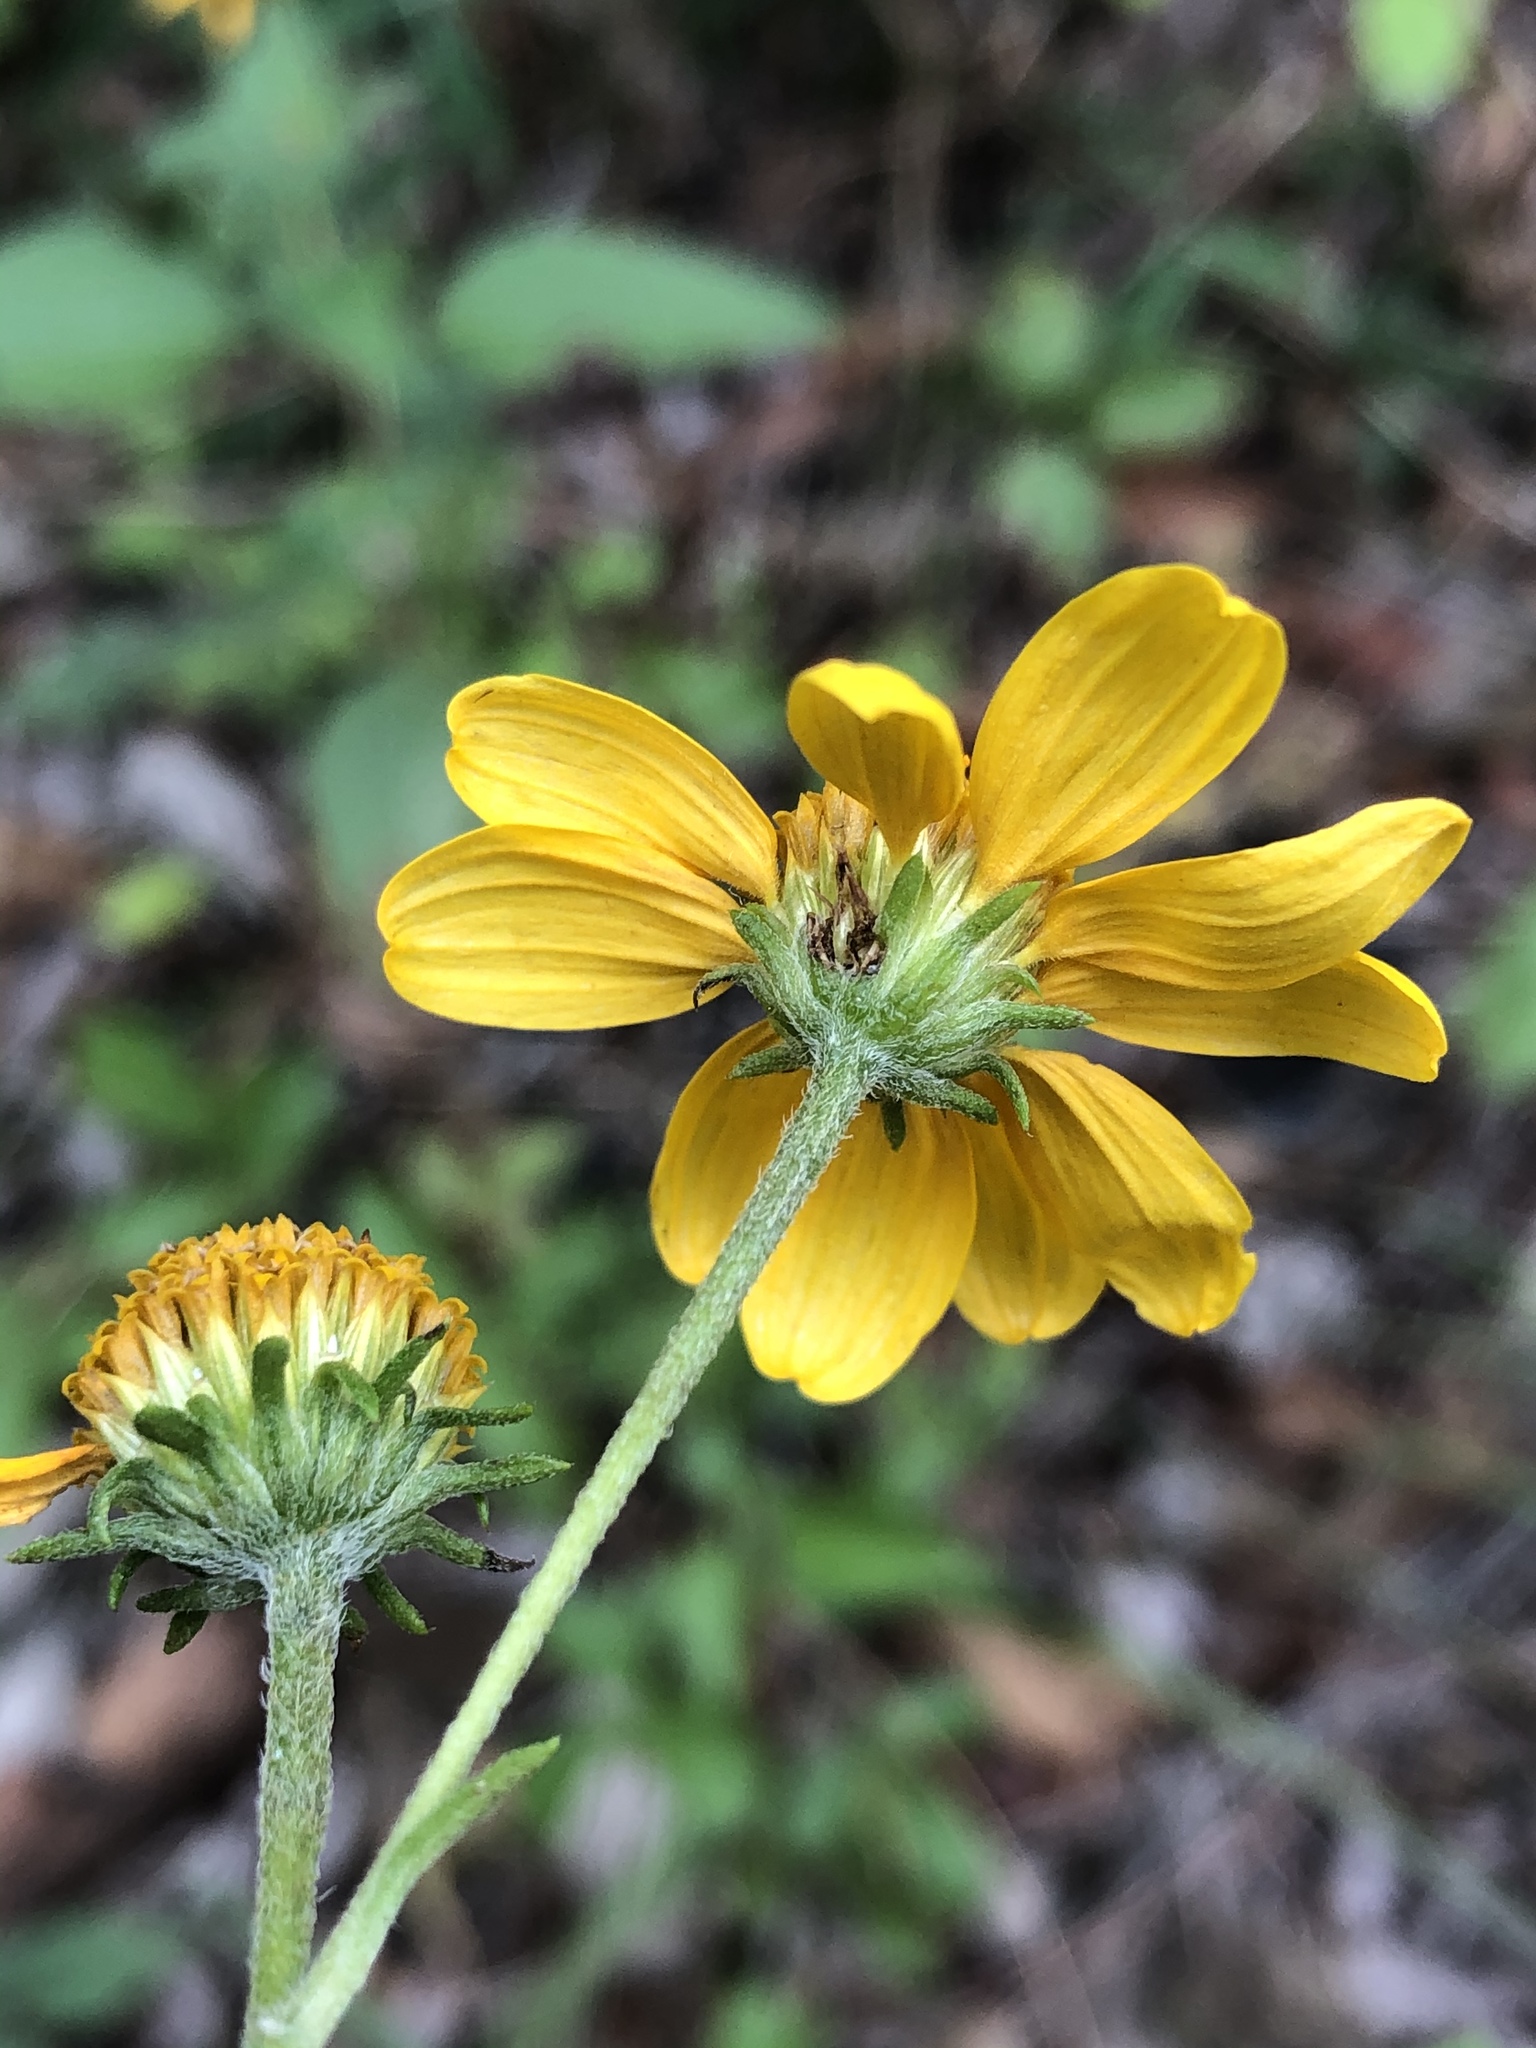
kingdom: Plantae
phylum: Tracheophyta
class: Magnoliopsida
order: Asterales
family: Asteraceae
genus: Viguiera
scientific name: Viguiera dentata
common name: Toothleaf
